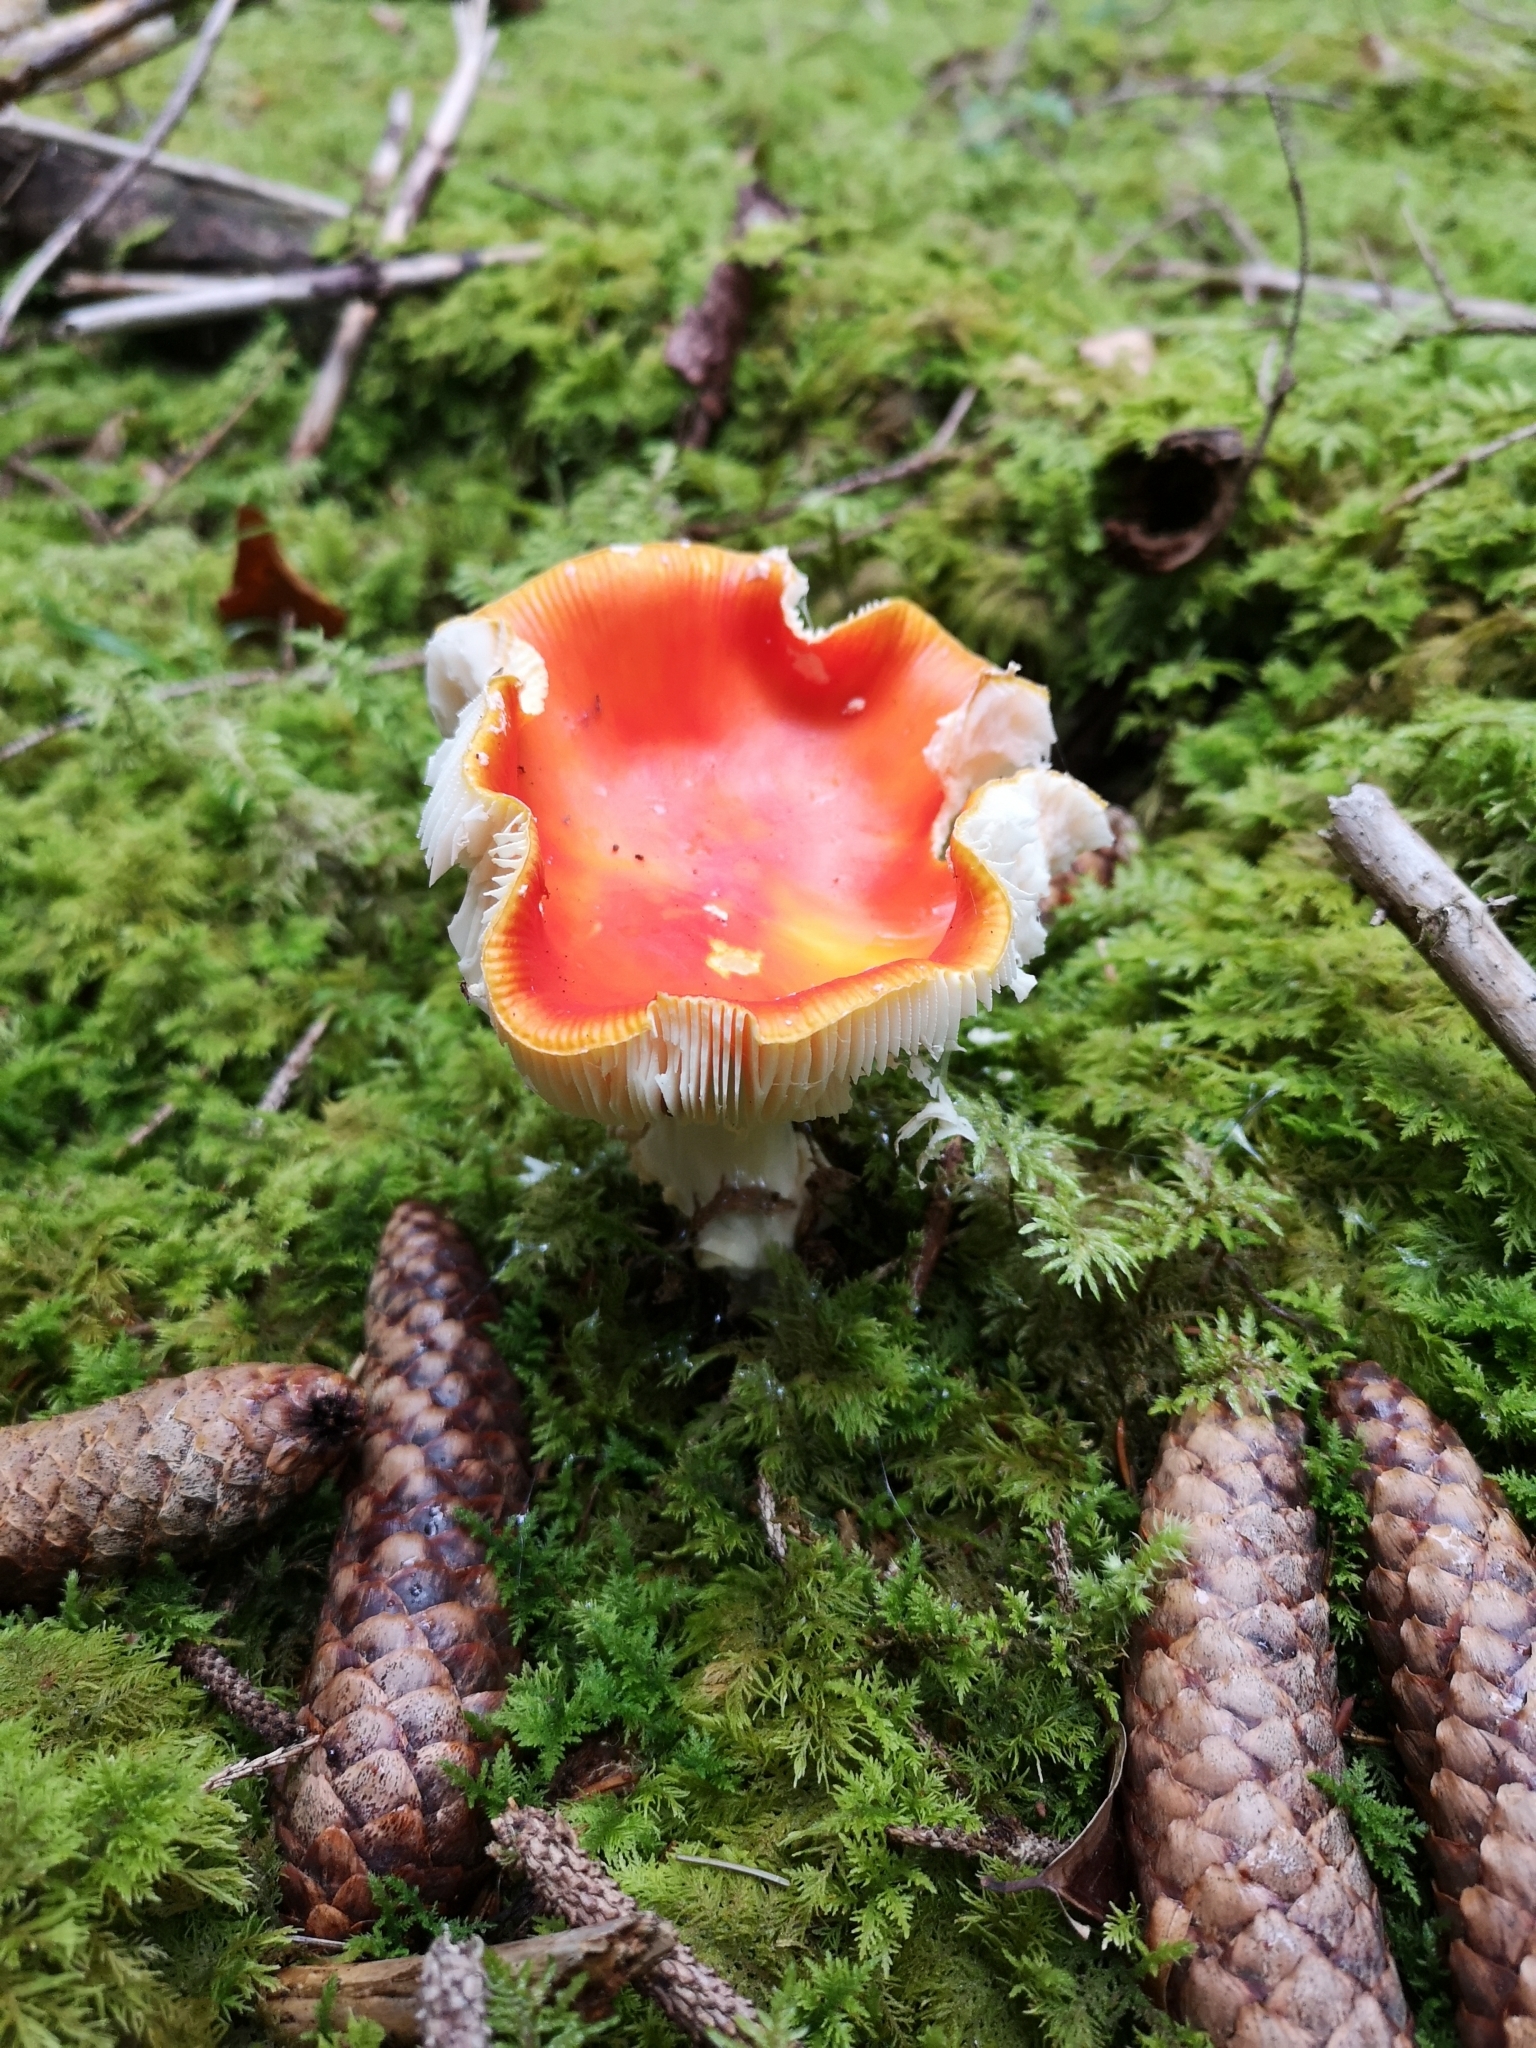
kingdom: Fungi
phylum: Basidiomycota
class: Agaricomycetes
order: Agaricales
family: Amanitaceae
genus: Amanita
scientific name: Amanita muscaria
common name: Fly agaric
